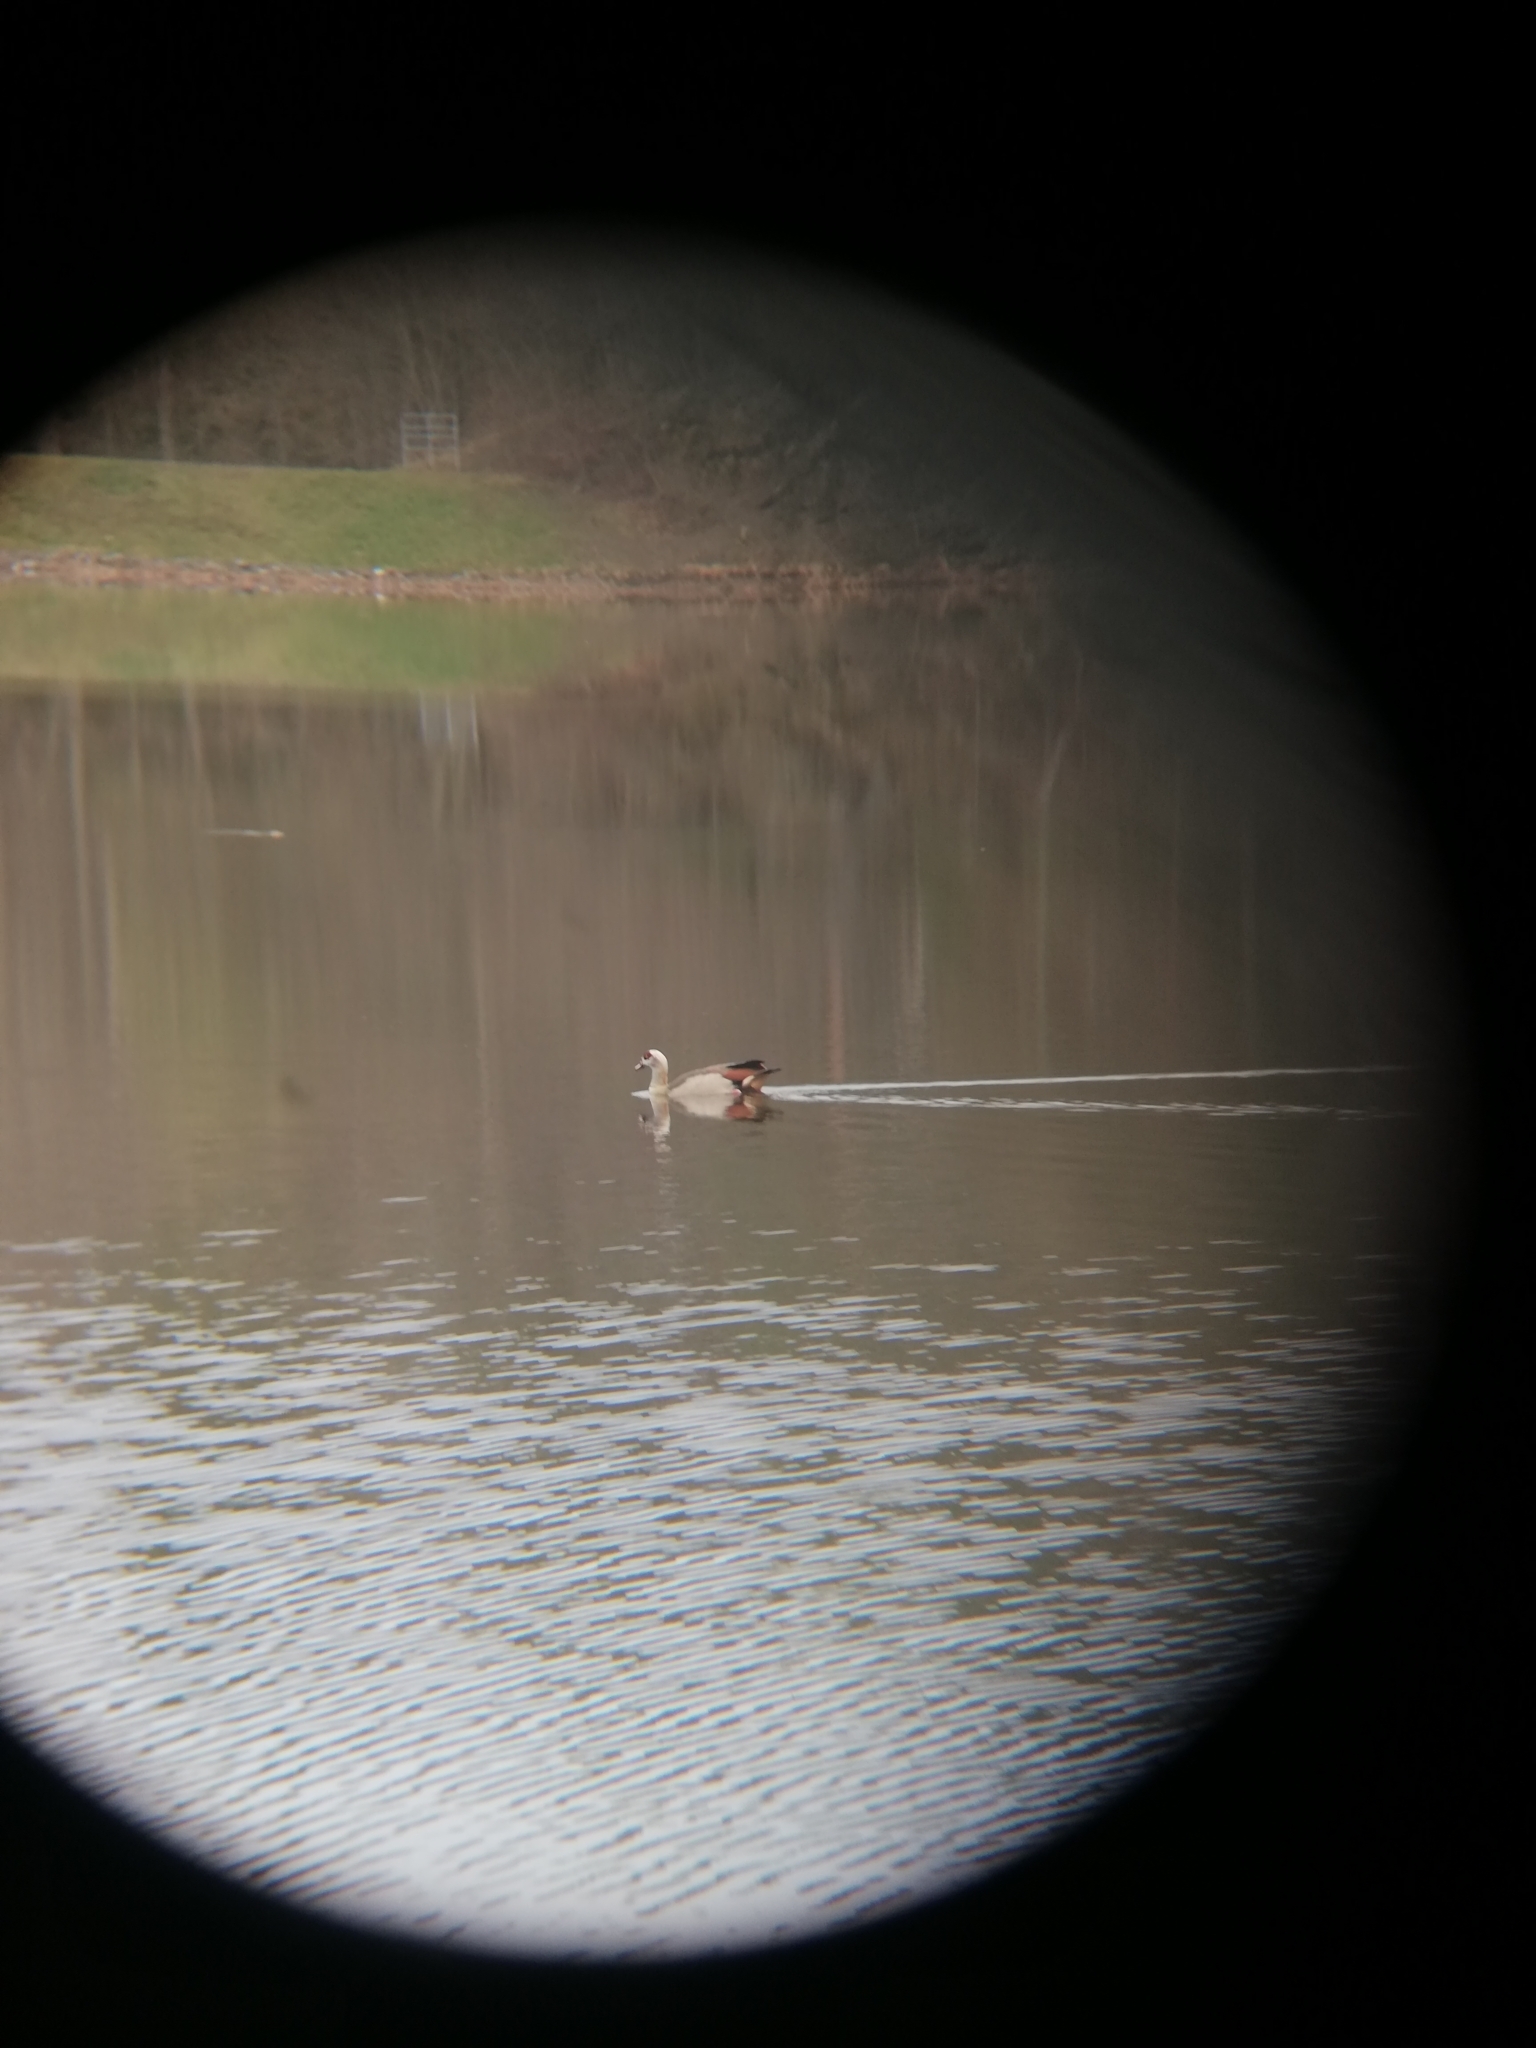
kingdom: Animalia
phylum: Chordata
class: Aves
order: Anseriformes
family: Anatidae
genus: Alopochen
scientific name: Alopochen aegyptiaca
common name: Egyptian goose
